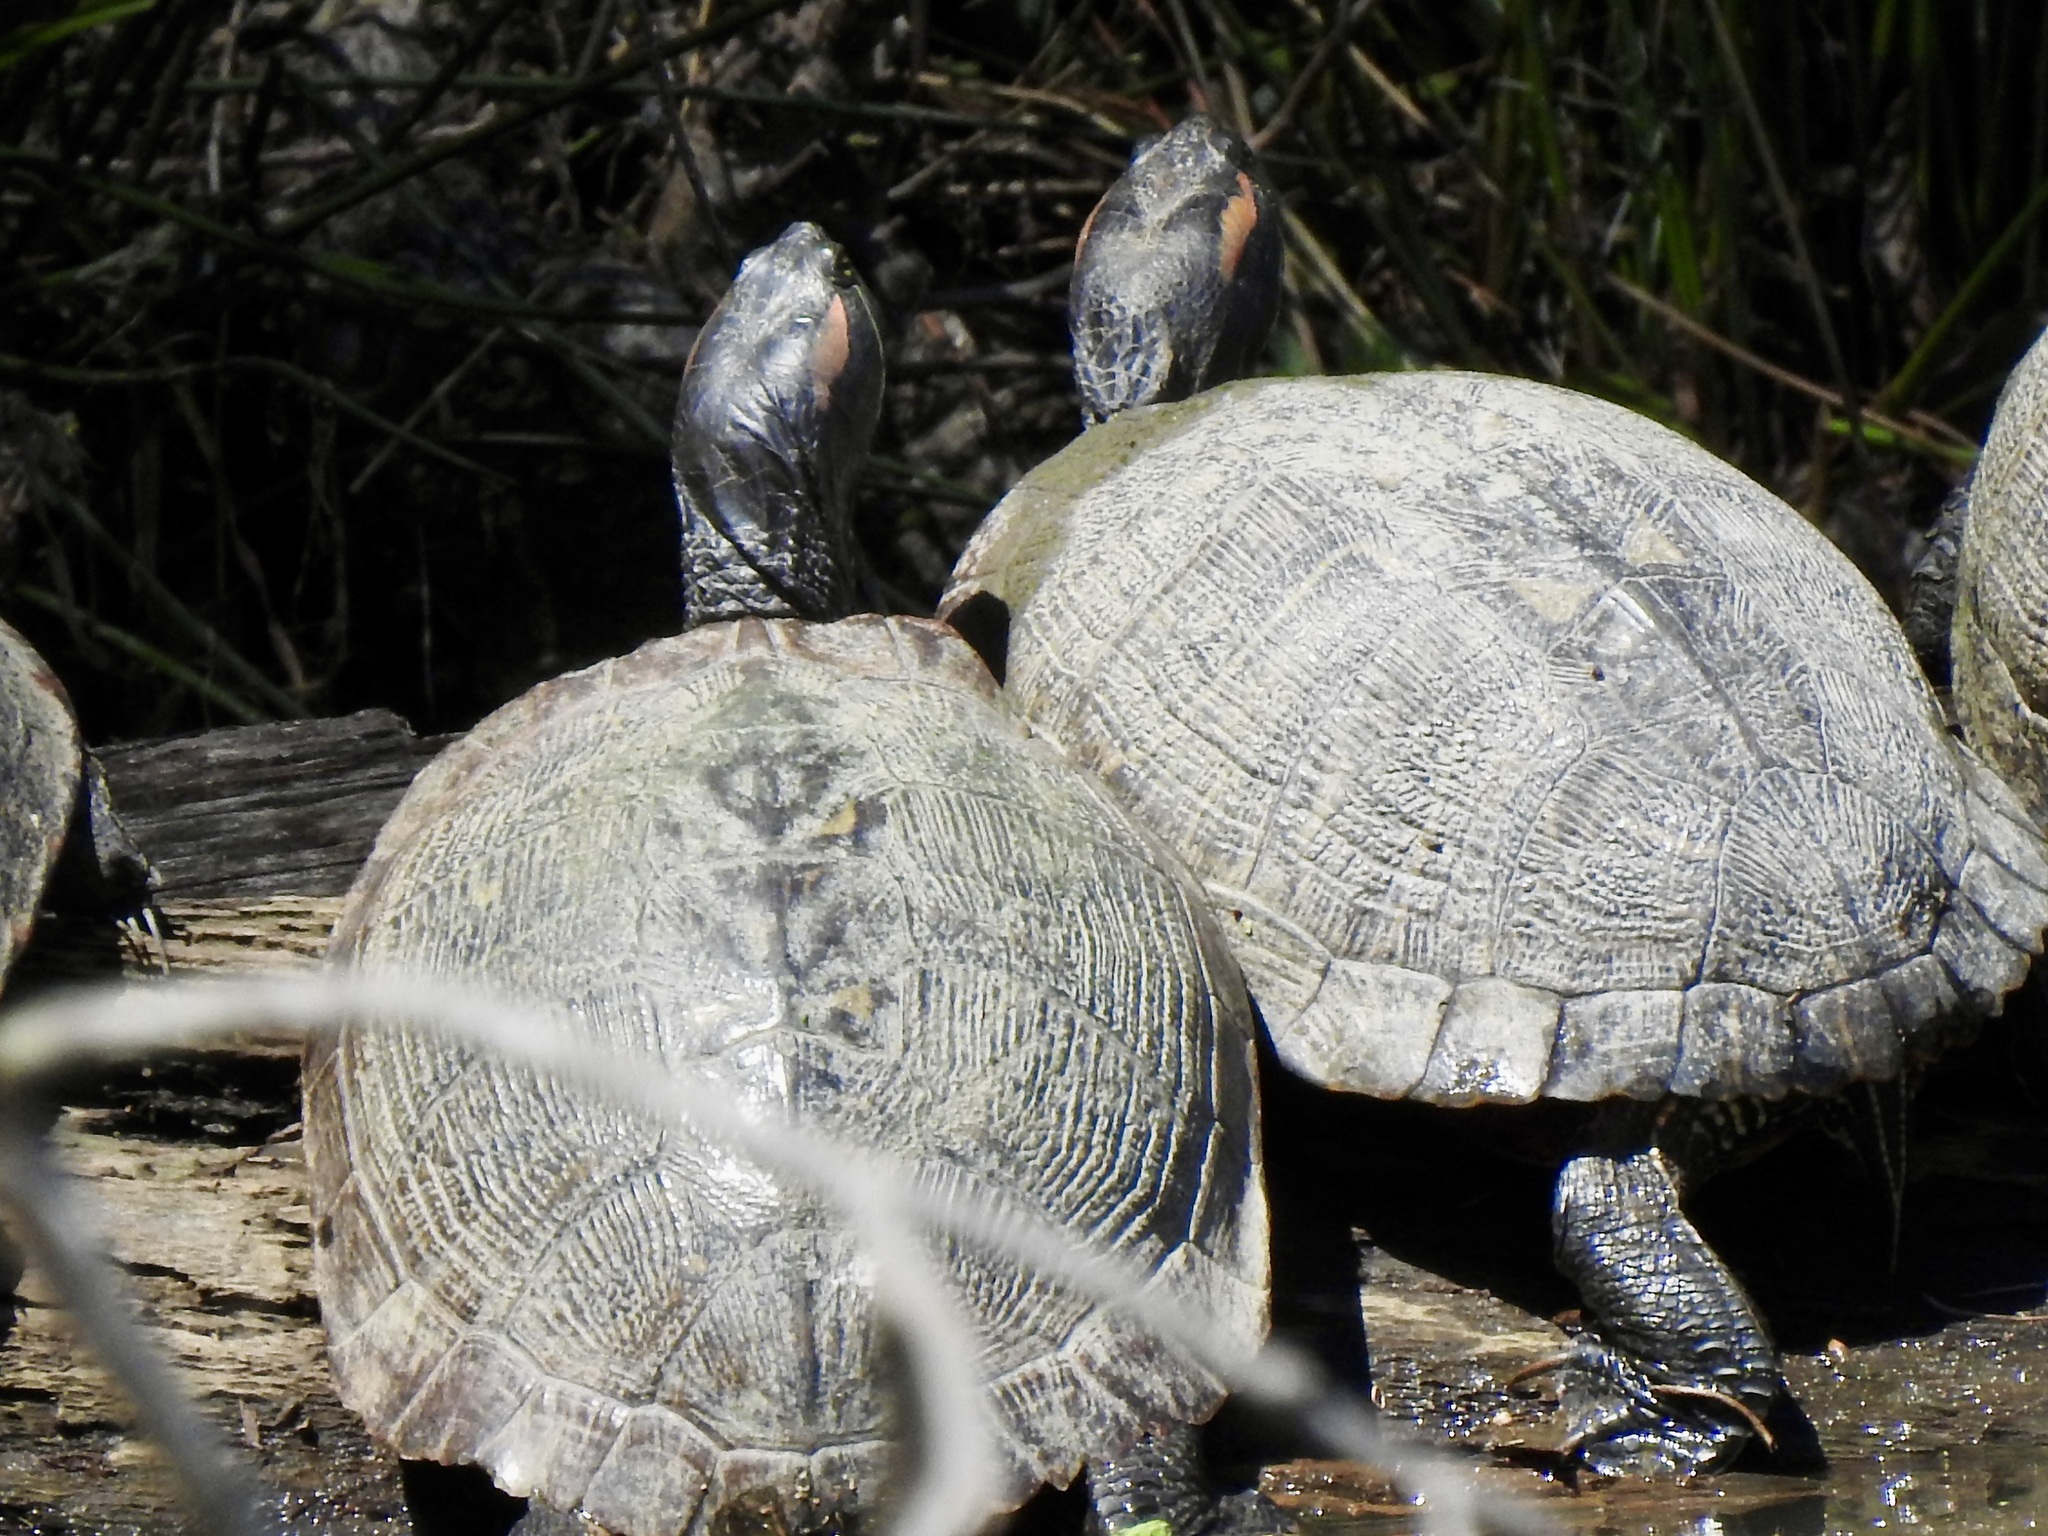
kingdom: Animalia
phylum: Chordata
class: Testudines
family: Emydidae
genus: Trachemys
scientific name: Trachemys scripta
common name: Slider
